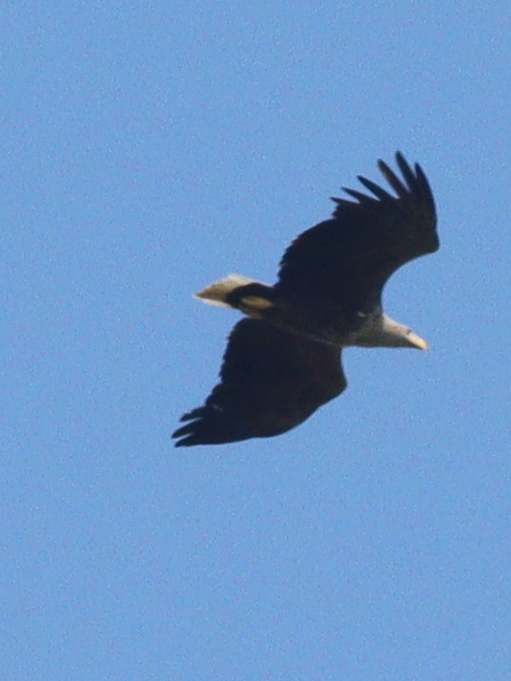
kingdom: Animalia
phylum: Chordata
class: Aves
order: Accipitriformes
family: Accipitridae
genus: Haliaeetus
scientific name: Haliaeetus albicilla
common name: White-tailed eagle
